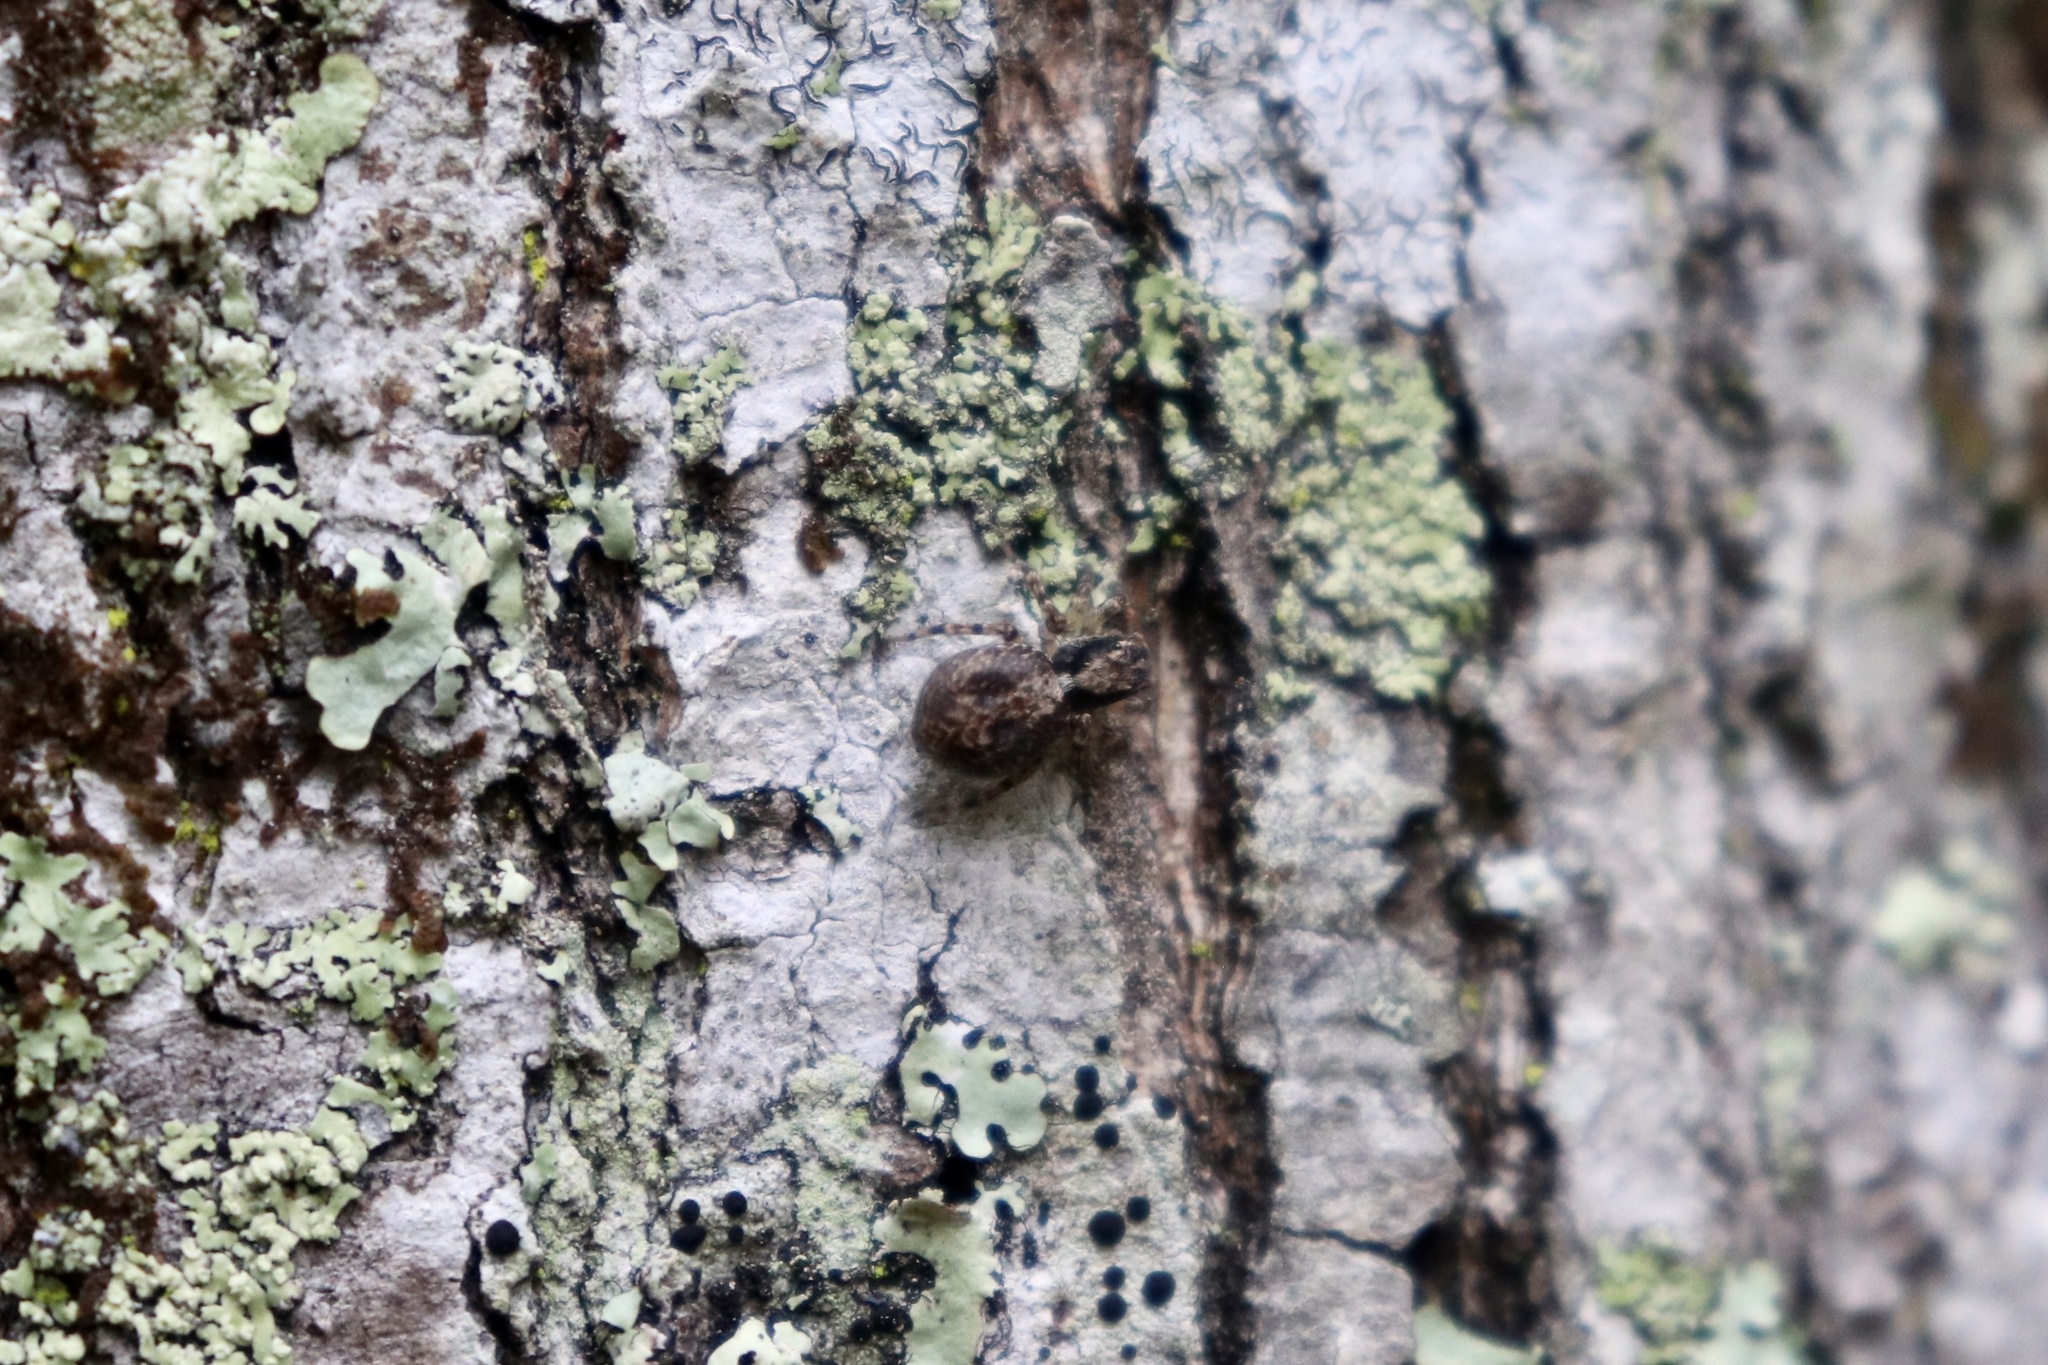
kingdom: Animalia
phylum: Arthropoda
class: Arachnida
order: Araneae
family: Salticidae
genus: Naphrys
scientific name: Naphrys pulex
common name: Flea jumping spider
